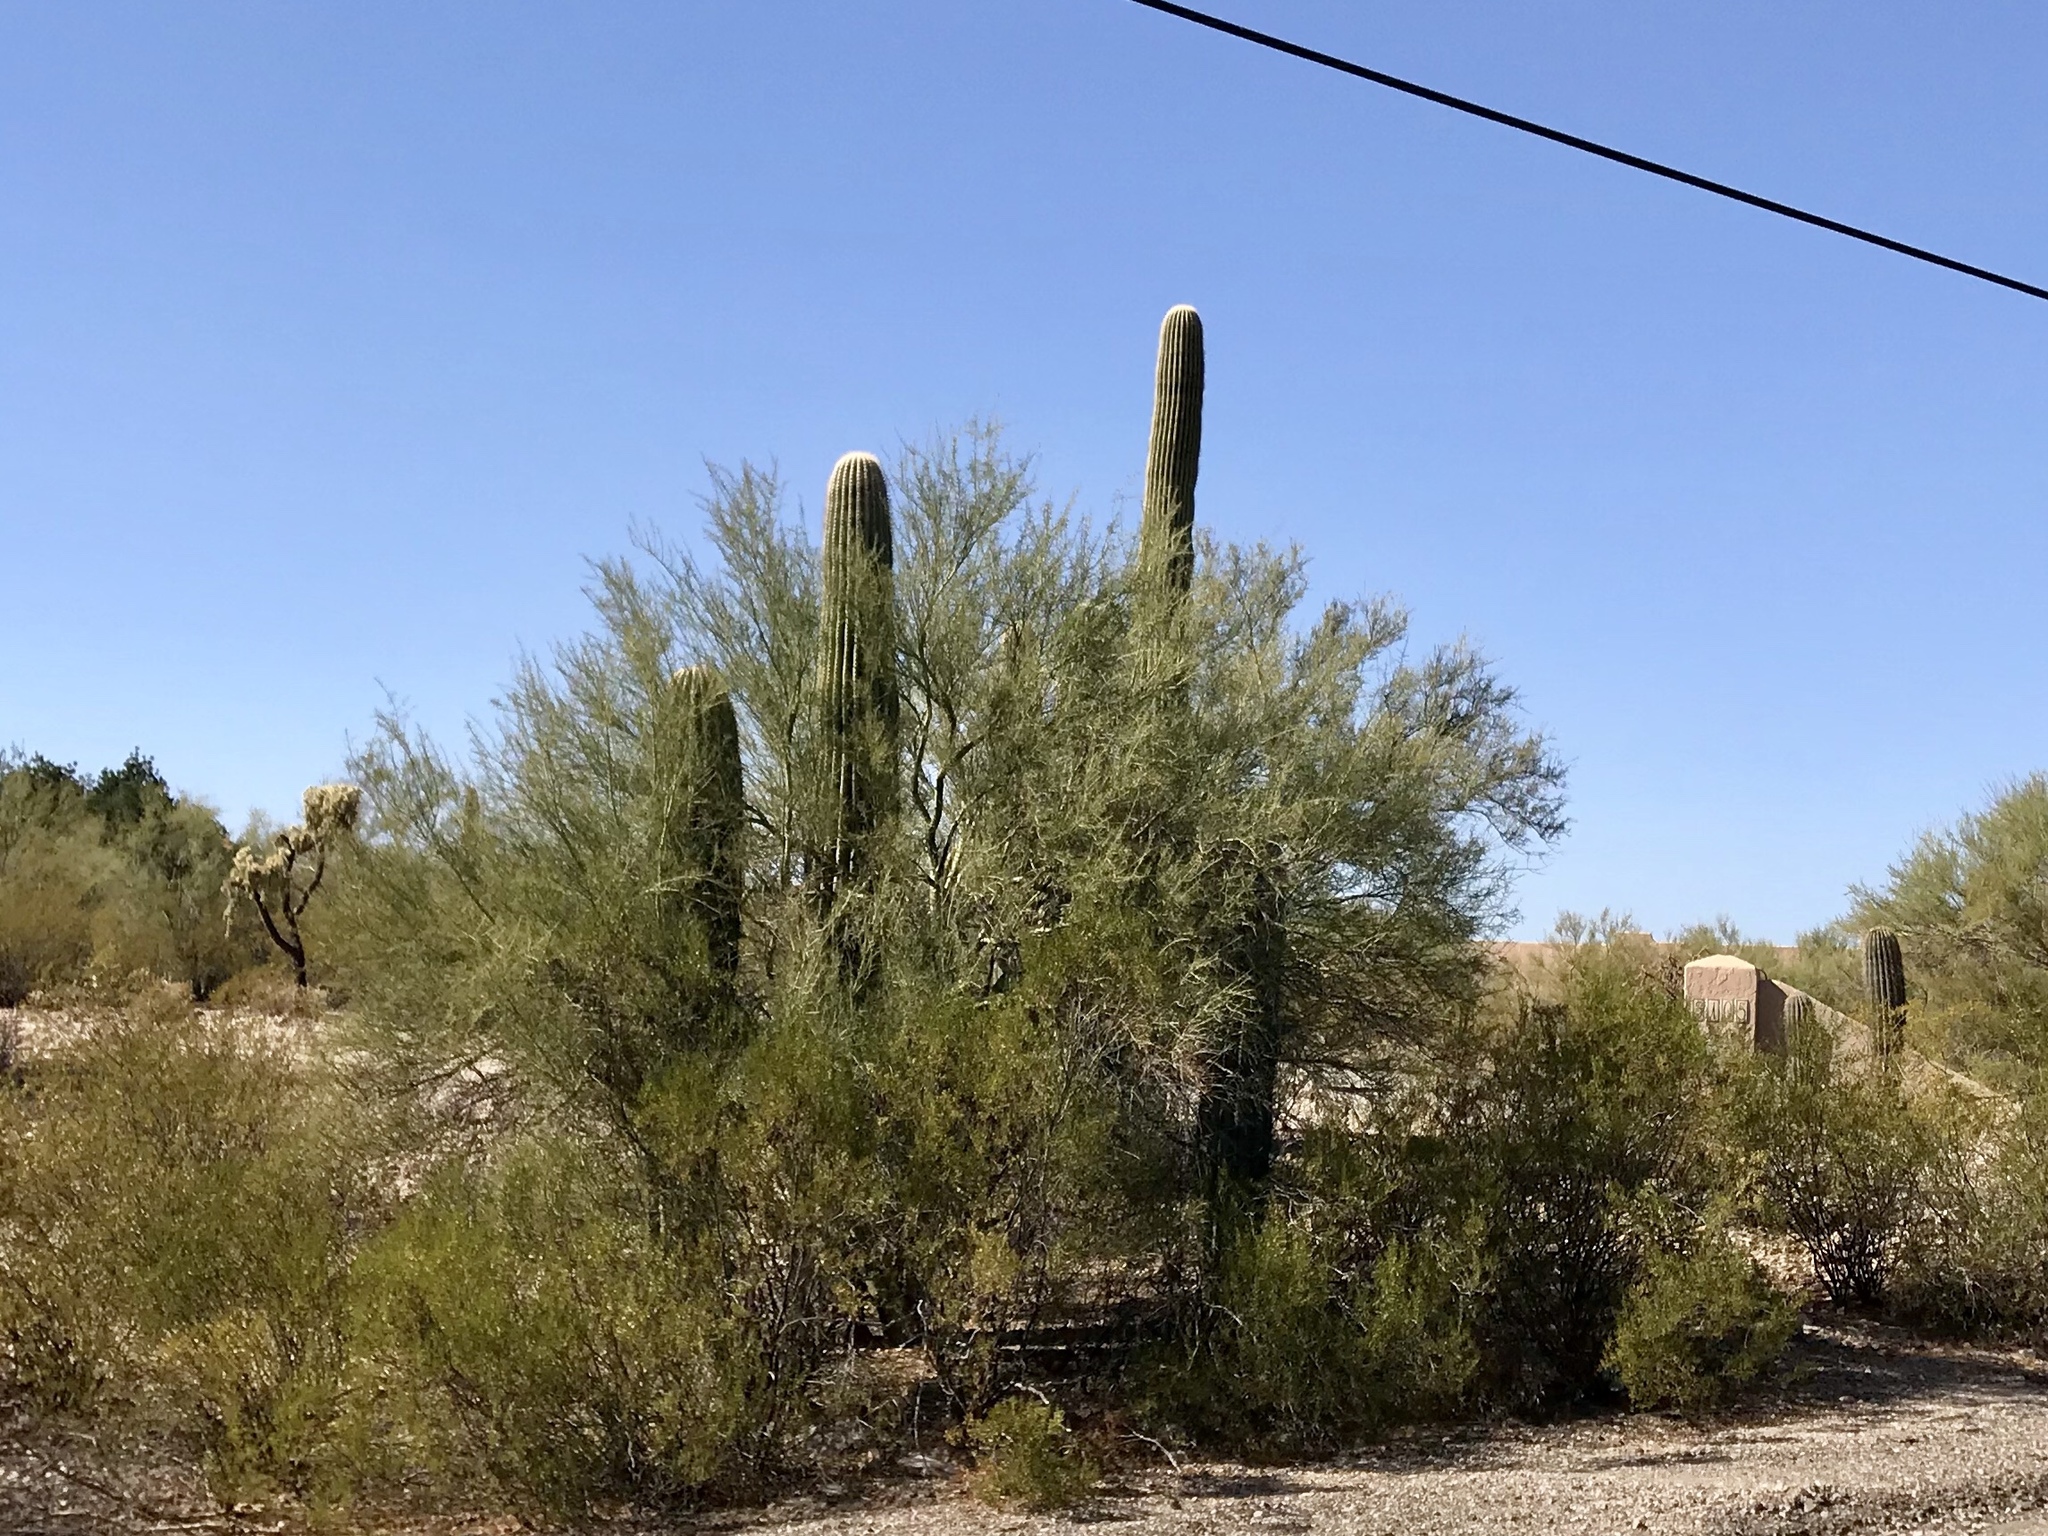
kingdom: Plantae
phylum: Tracheophyta
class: Magnoliopsida
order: Fabales
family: Fabaceae
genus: Parkinsonia
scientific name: Parkinsonia microphylla
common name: Yellow paloverde
